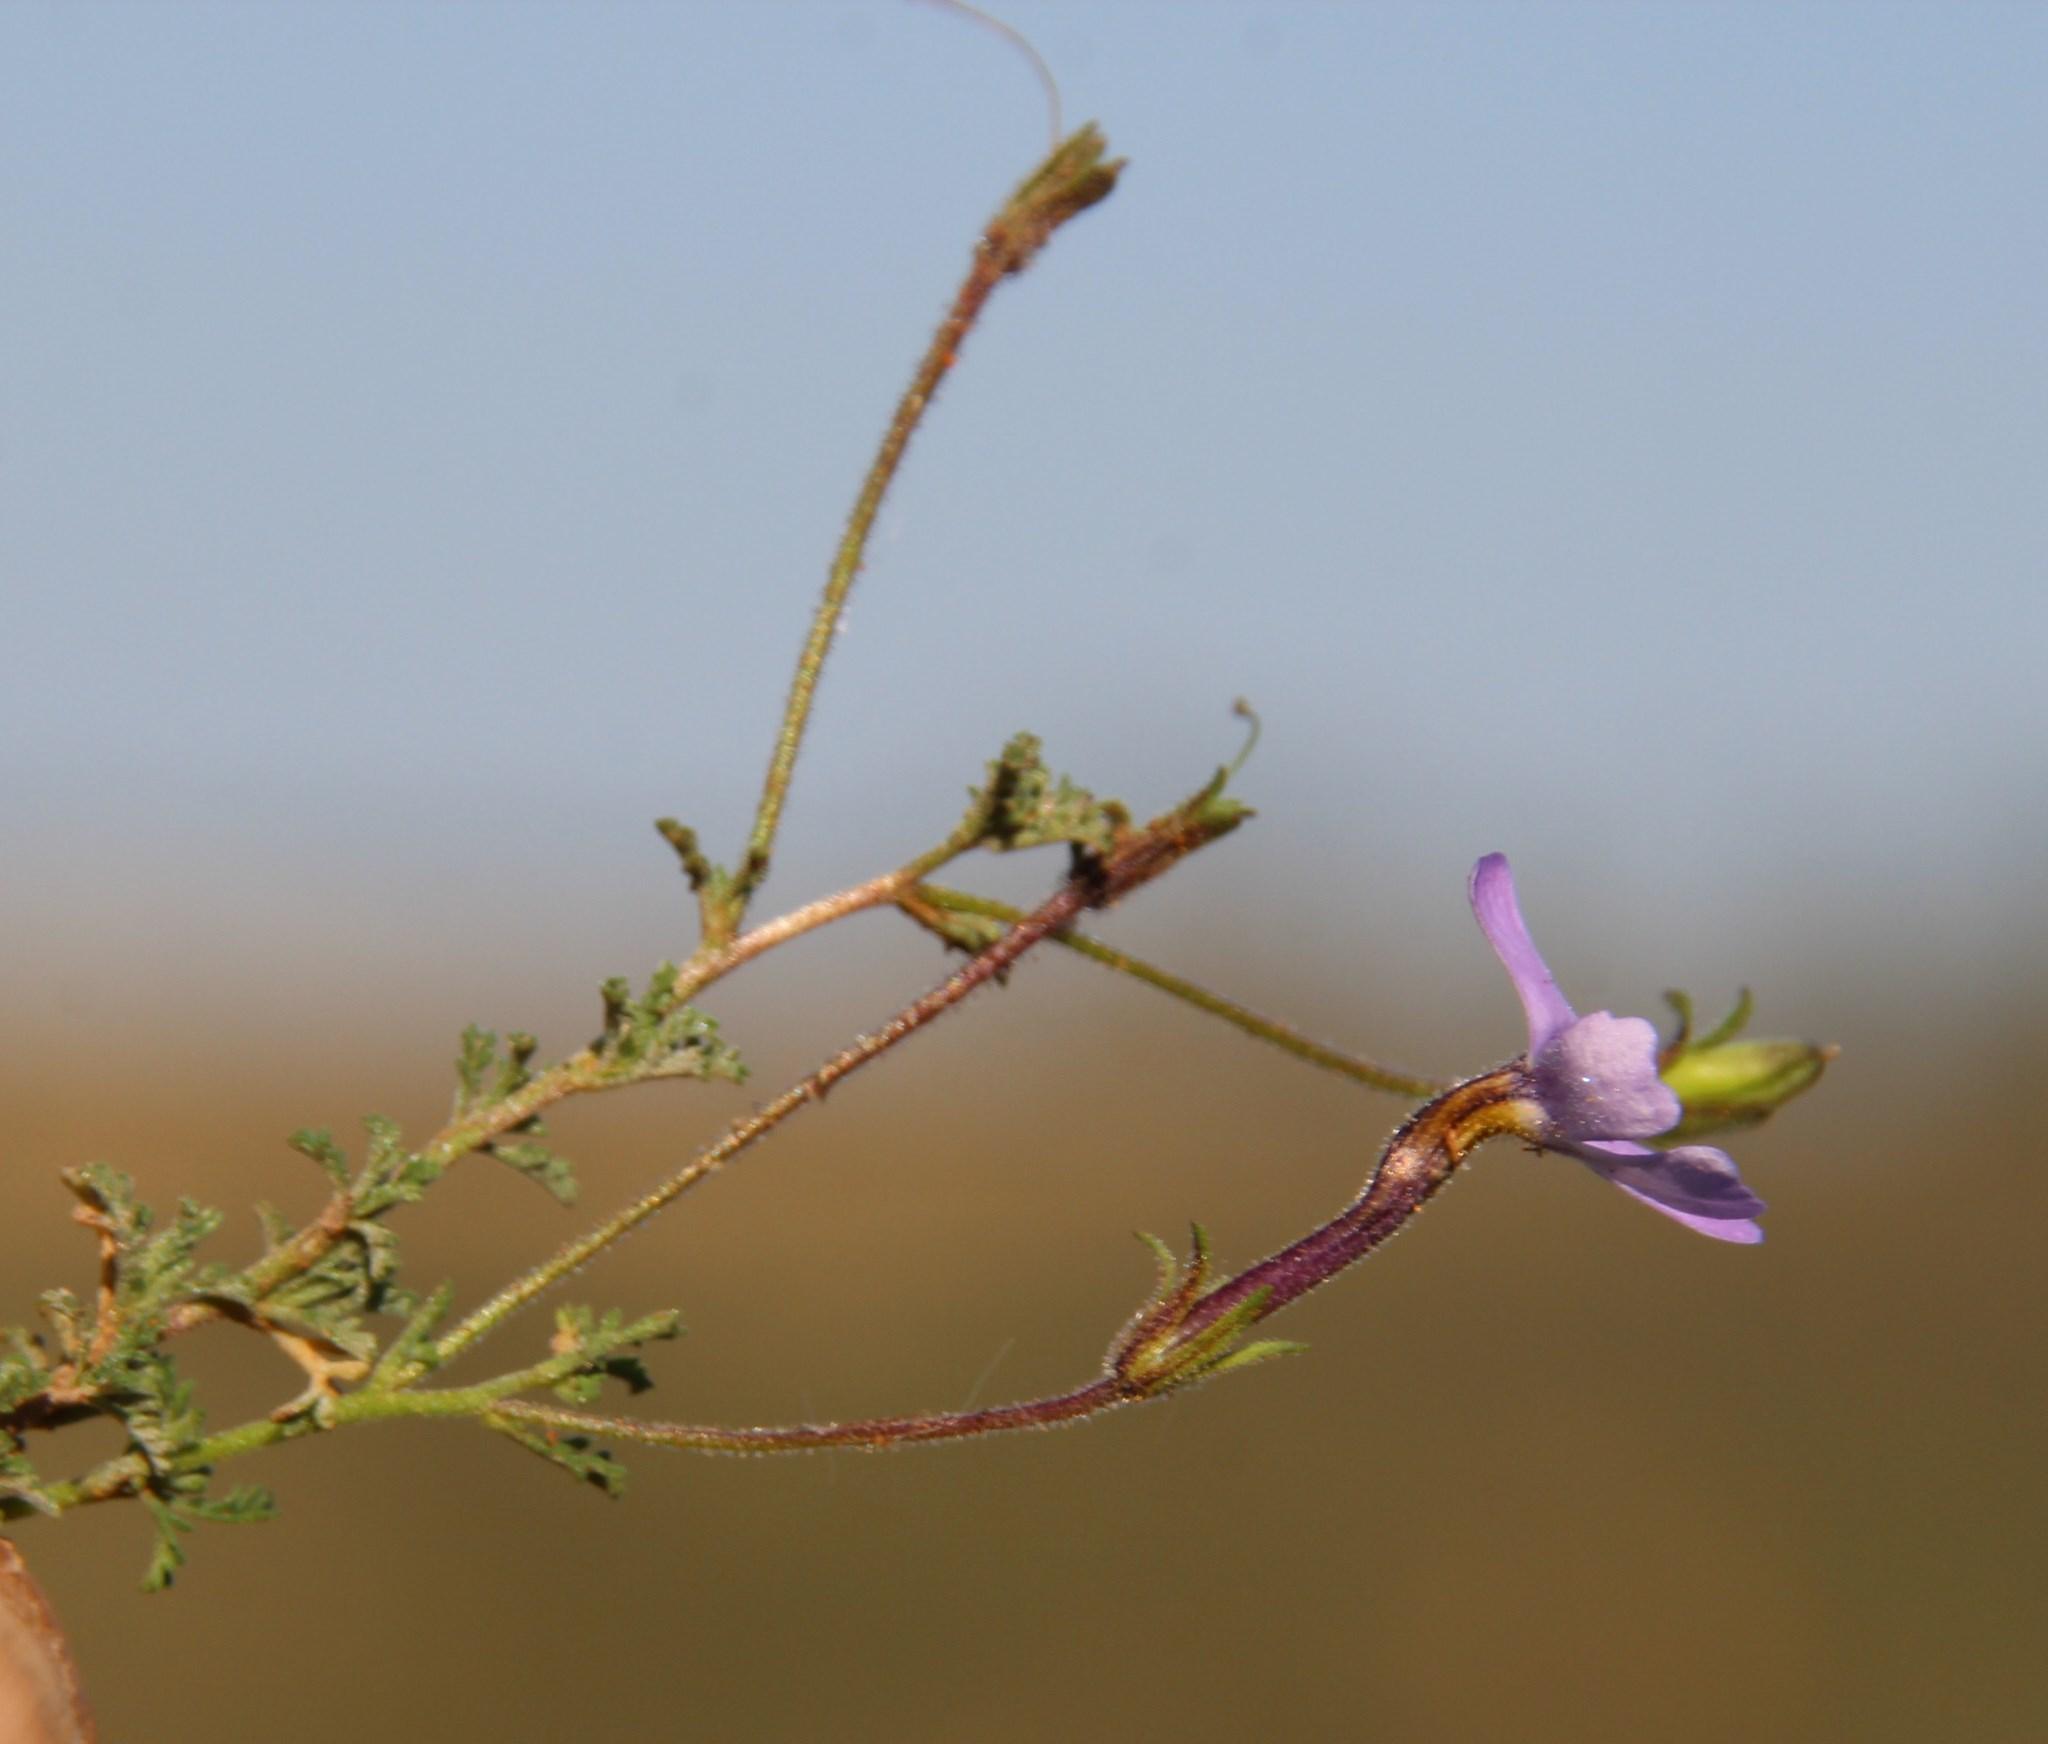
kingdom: Plantae
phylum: Tracheophyta
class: Magnoliopsida
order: Lamiales
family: Scrophulariaceae
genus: Jamesbrittenia
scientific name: Jamesbrittenia pinnatifida
